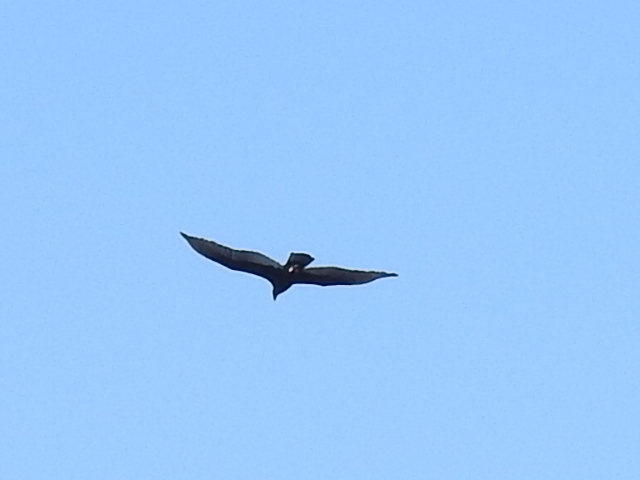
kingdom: Animalia
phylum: Chordata
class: Aves
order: Accipitriformes
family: Cathartidae
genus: Cathartes
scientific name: Cathartes aura
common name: Turkey vulture
